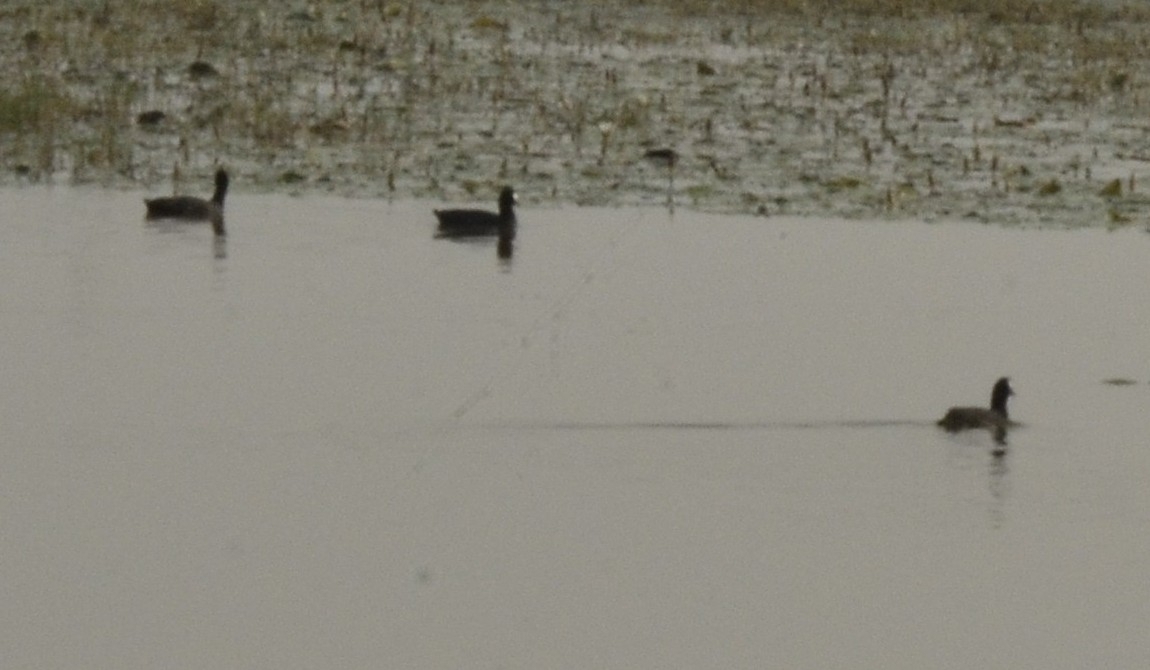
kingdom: Animalia
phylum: Chordata
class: Aves
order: Gruiformes
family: Rallidae
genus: Fulica
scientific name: Fulica atra
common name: Eurasian coot
